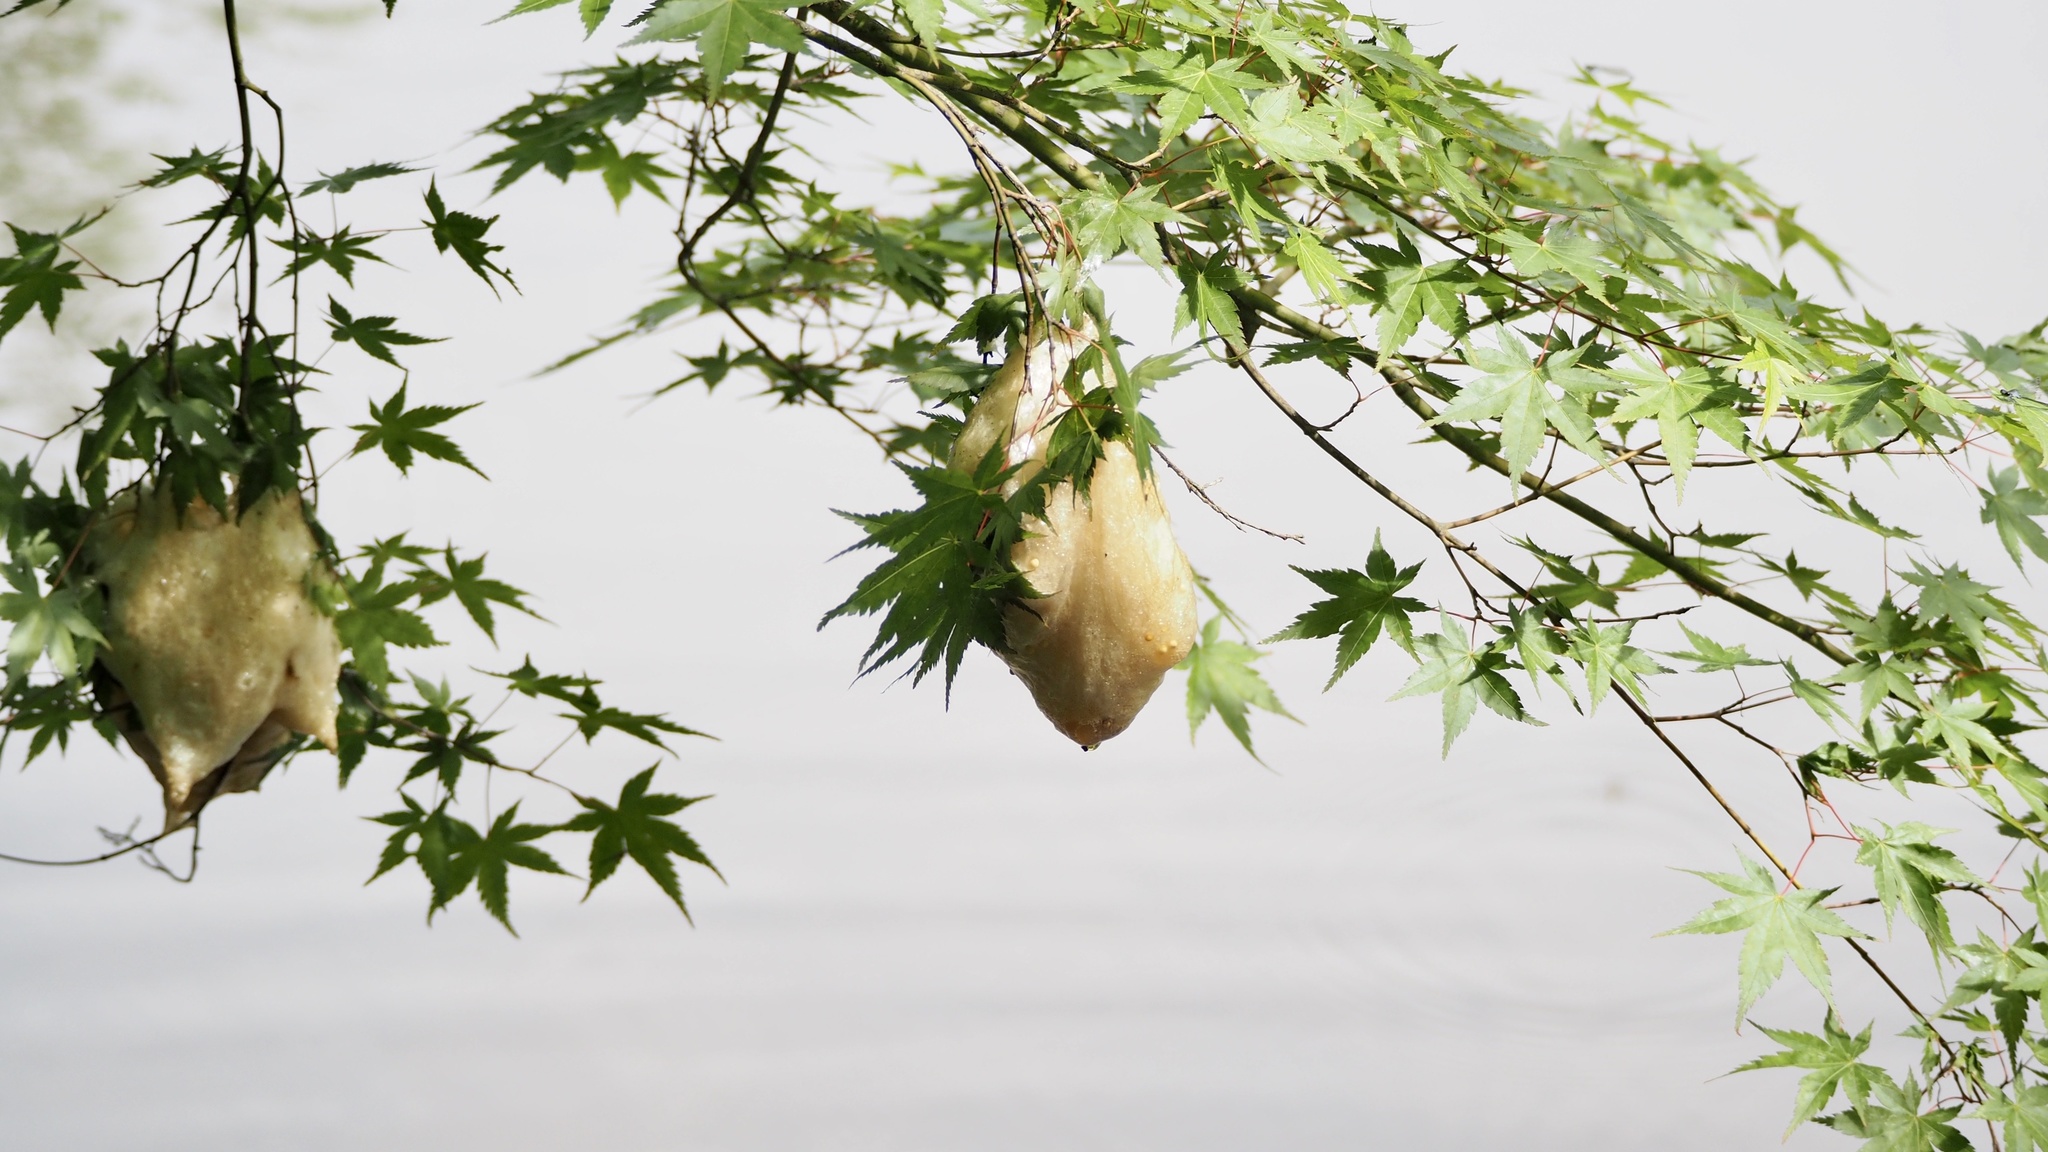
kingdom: Animalia
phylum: Chordata
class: Amphibia
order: Anura
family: Rhacophoridae
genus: Zhangixalus
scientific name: Zhangixalus arboreus
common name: Forest green tree frog
